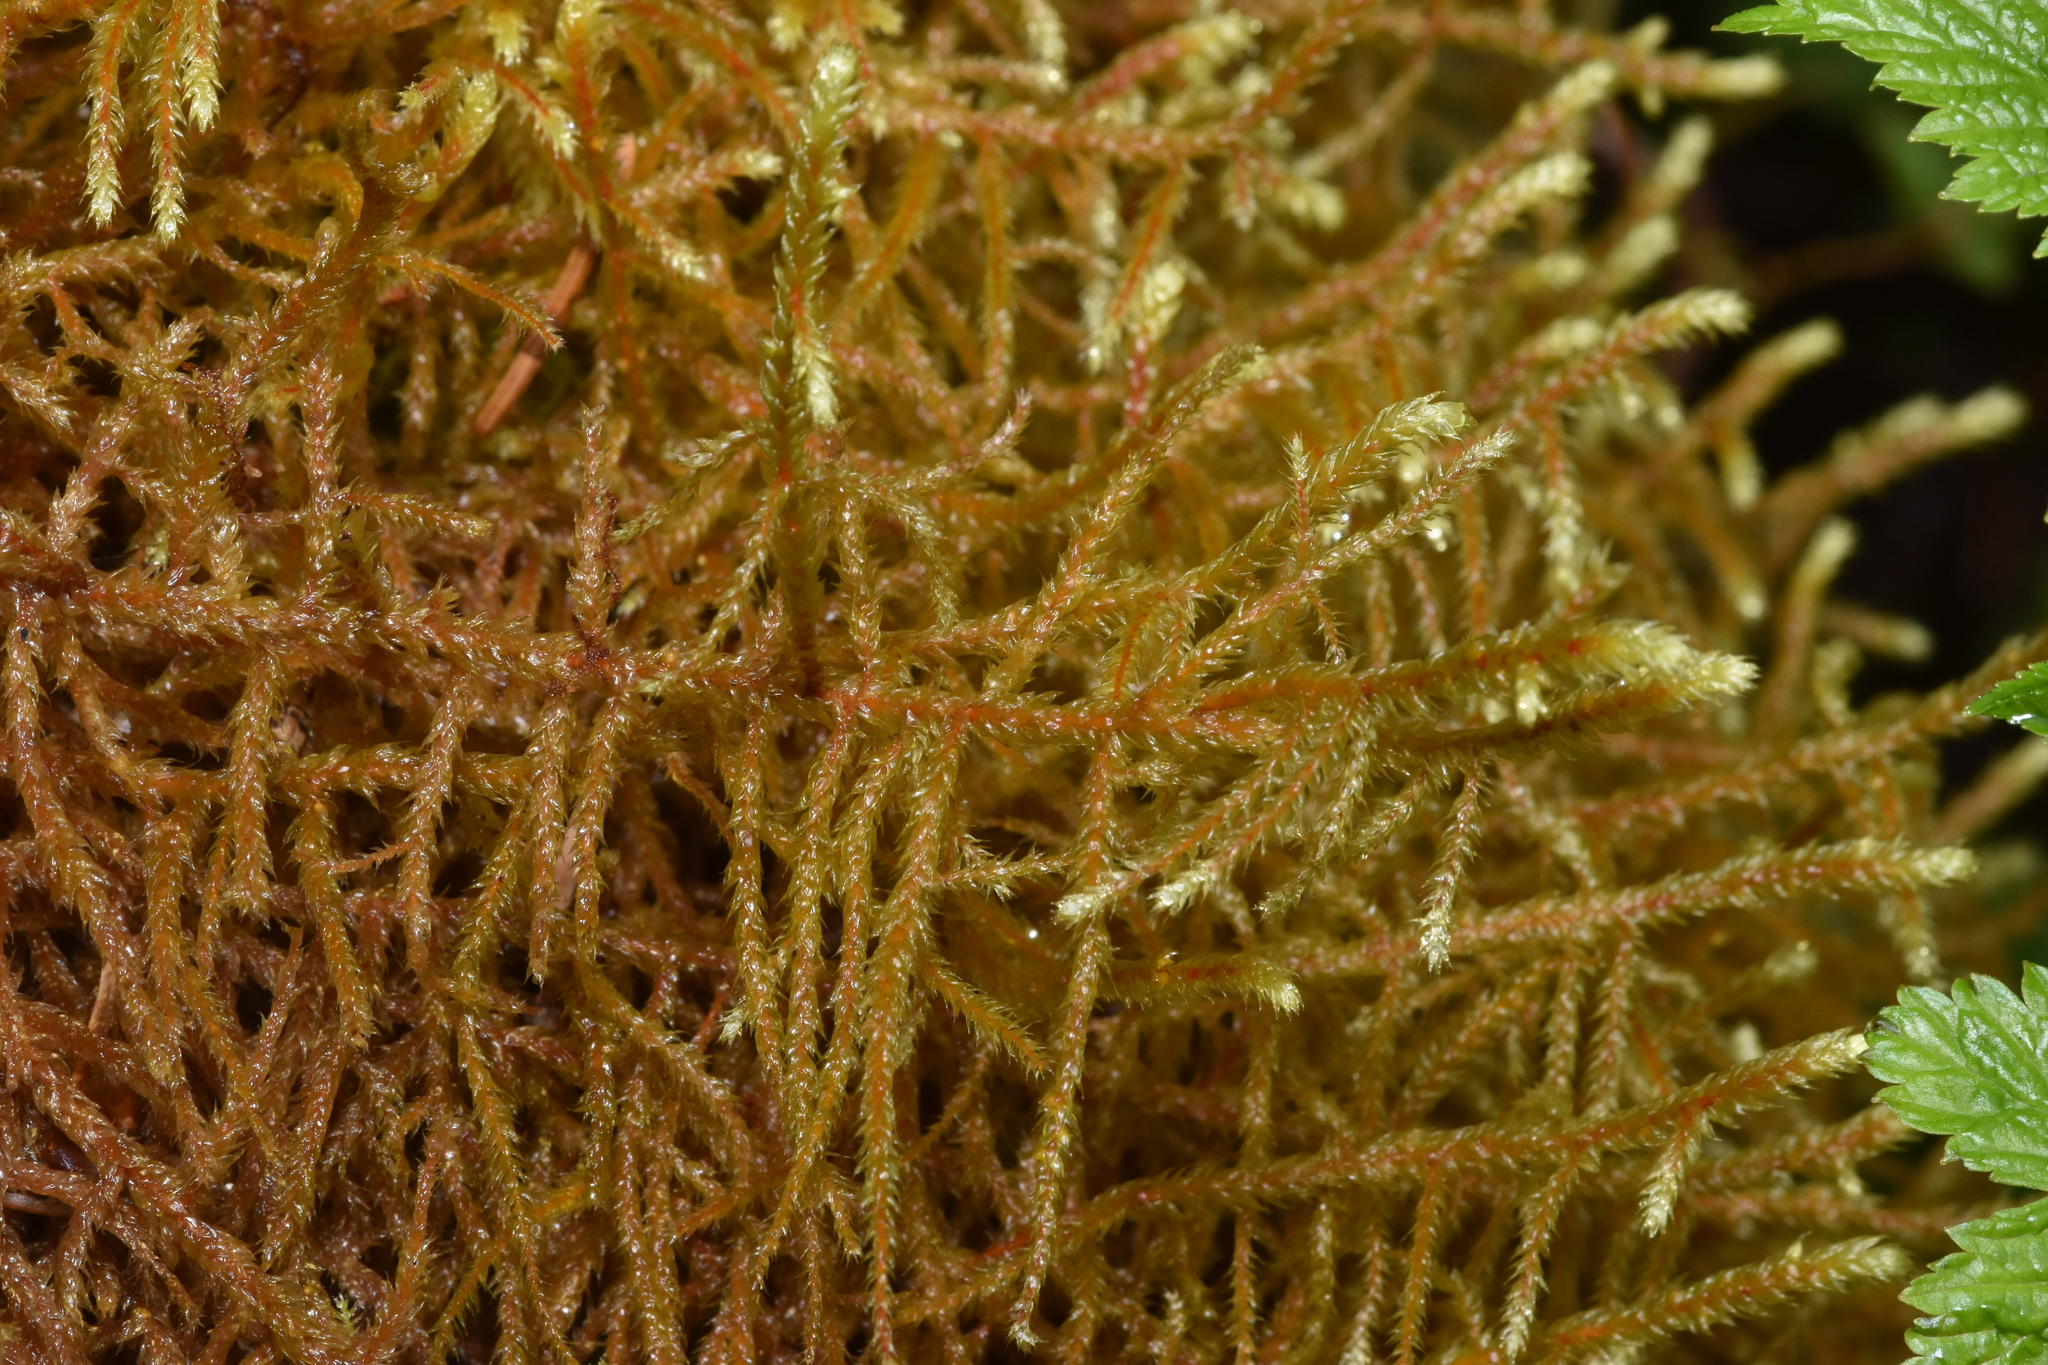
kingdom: Plantae
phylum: Bryophyta
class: Bryopsida
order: Hypnales
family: Antitrichiaceae
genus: Antitrichia
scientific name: Antitrichia curtipendula
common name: Pendulous wing-moss
